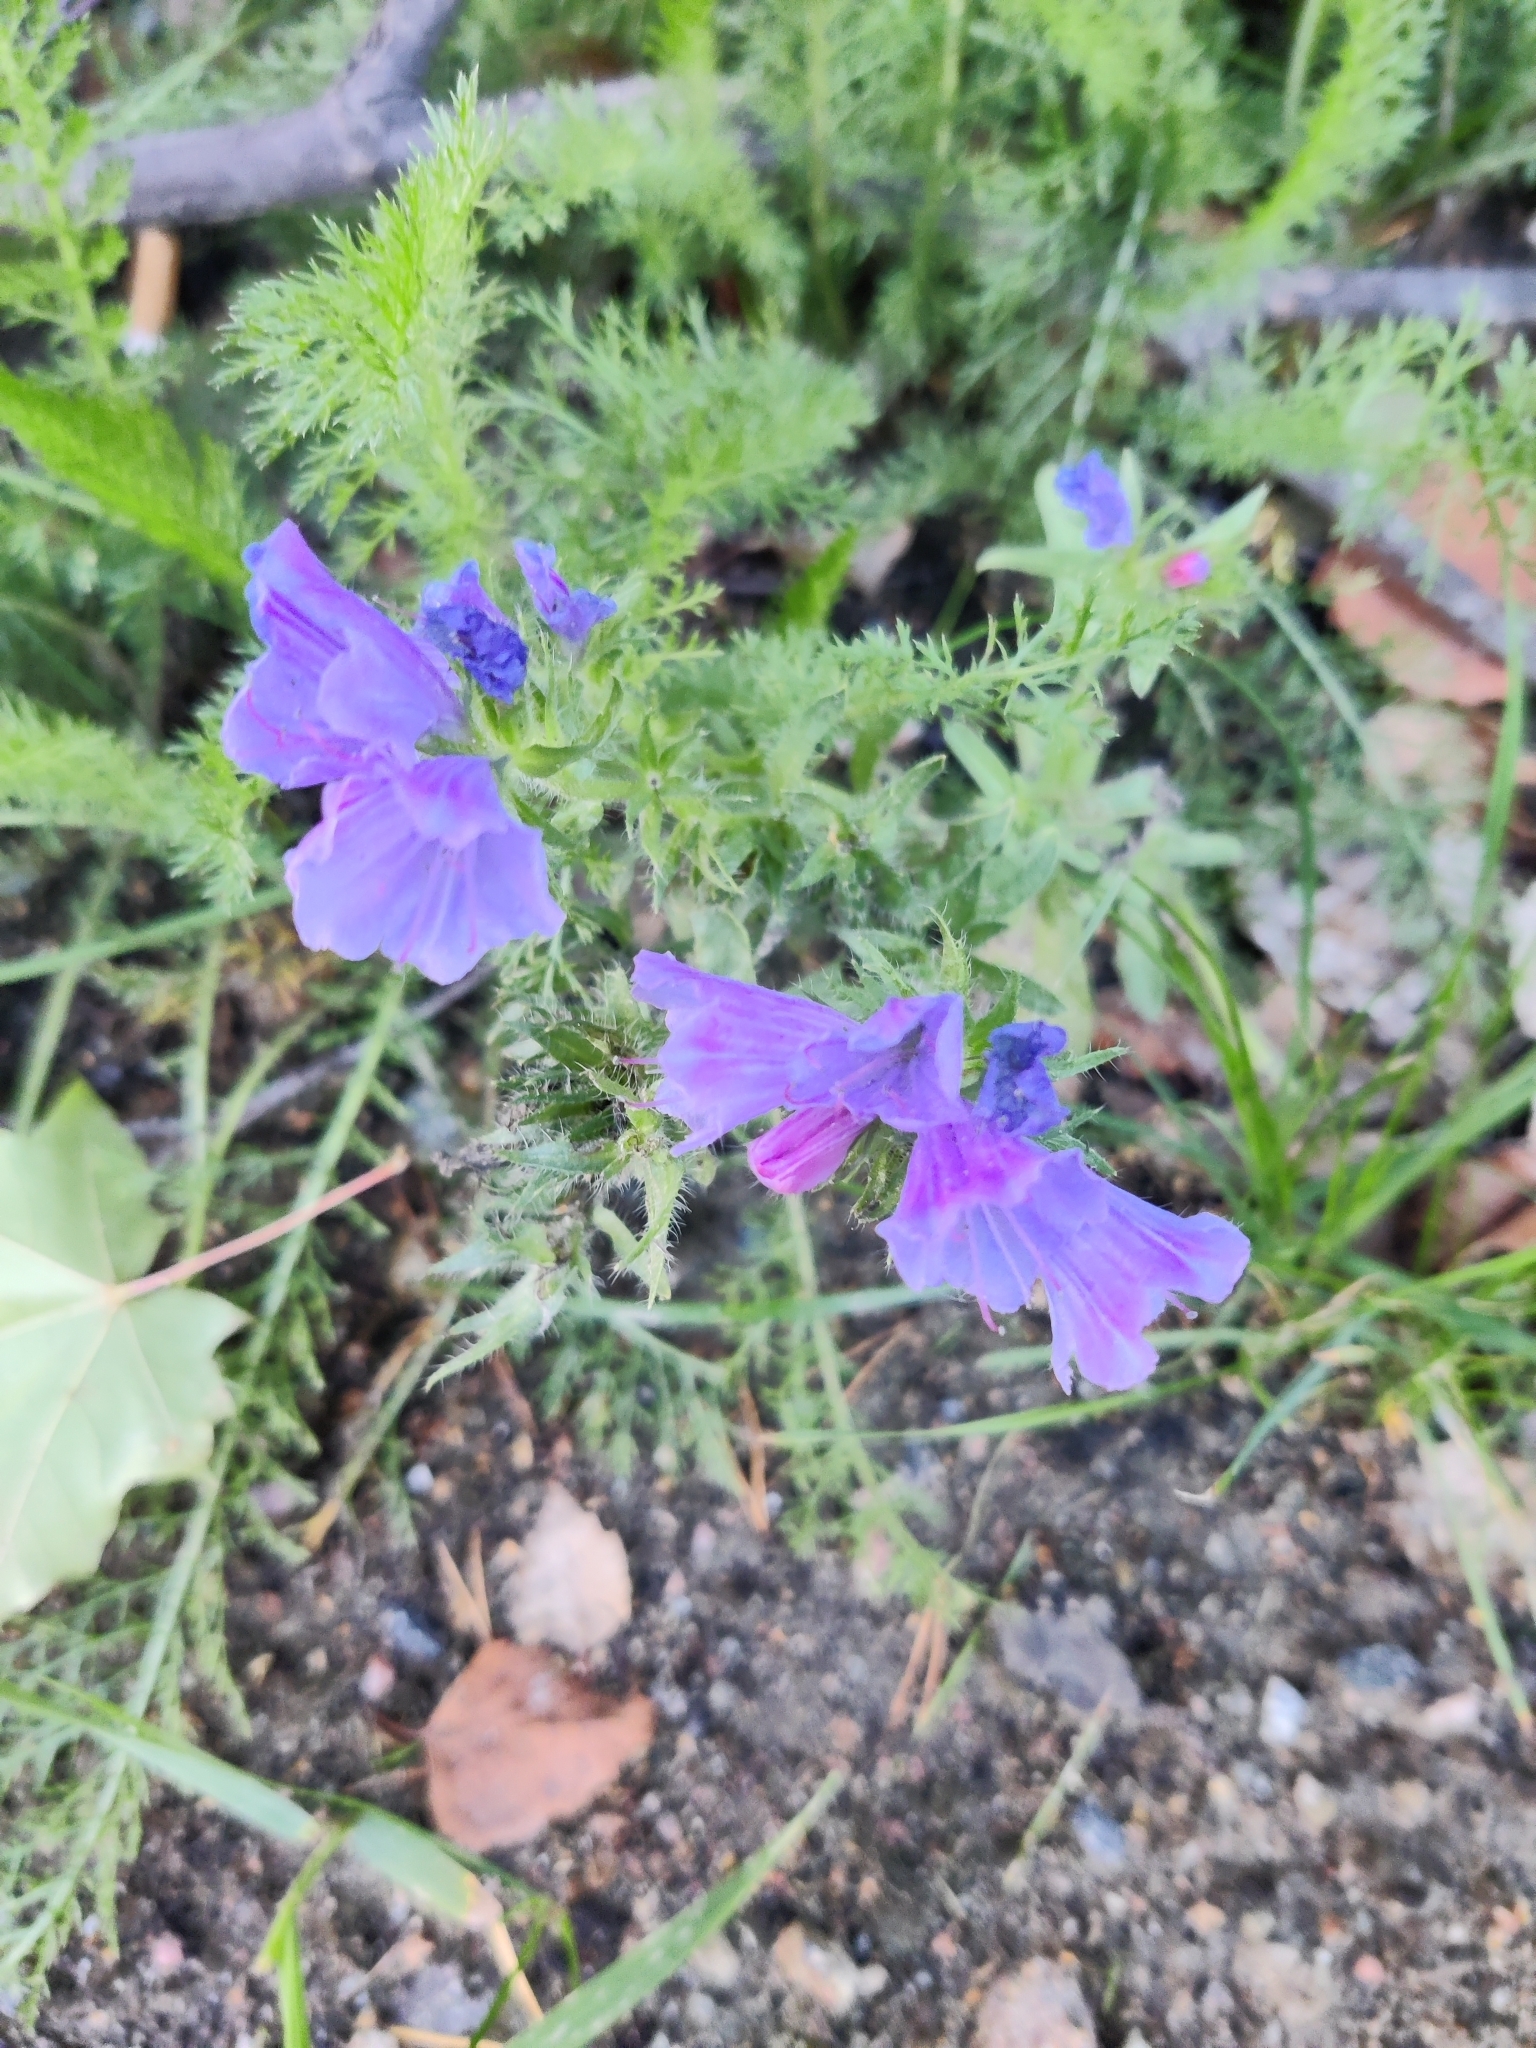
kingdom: Plantae
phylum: Tracheophyta
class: Magnoliopsida
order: Boraginales
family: Boraginaceae
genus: Echium
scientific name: Echium vulgare
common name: Common viper's bugloss
